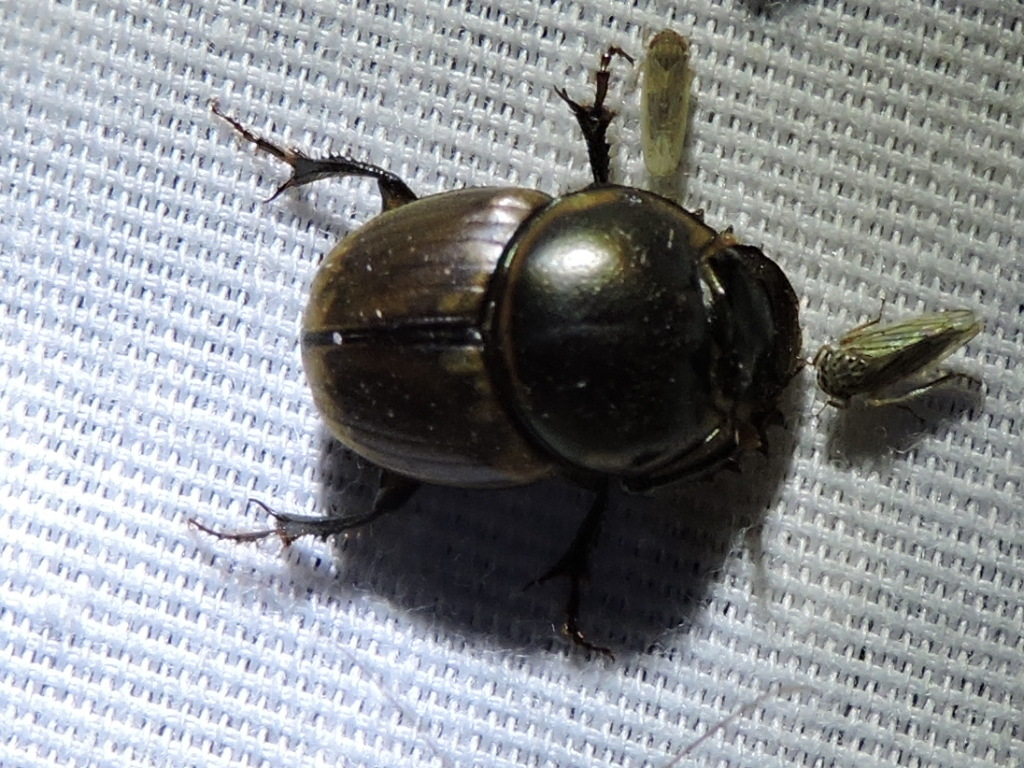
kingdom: Animalia
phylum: Arthropoda
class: Insecta
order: Coleoptera
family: Scarabaeidae
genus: Digitonthophagus
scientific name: Digitonthophagus gazella
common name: Brown dung beetle
